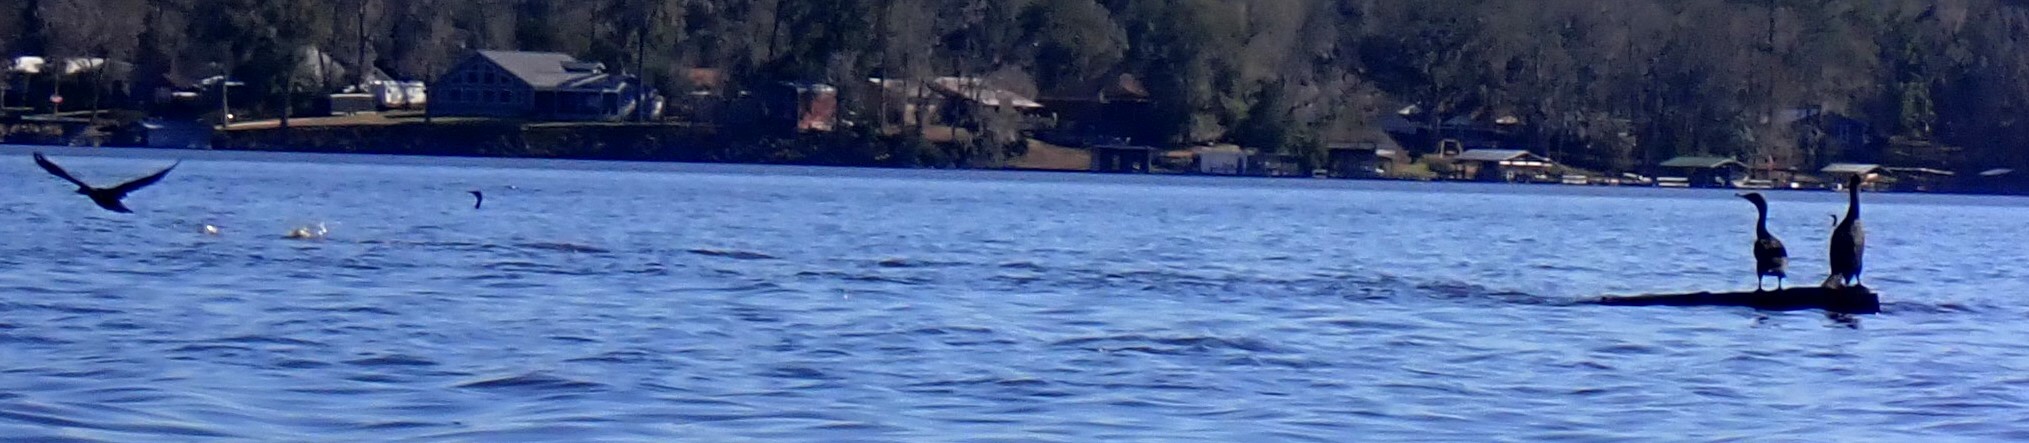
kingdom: Animalia
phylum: Chordata
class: Aves
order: Suliformes
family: Phalacrocoracidae
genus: Phalacrocorax
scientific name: Phalacrocorax auritus
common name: Double-crested cormorant
